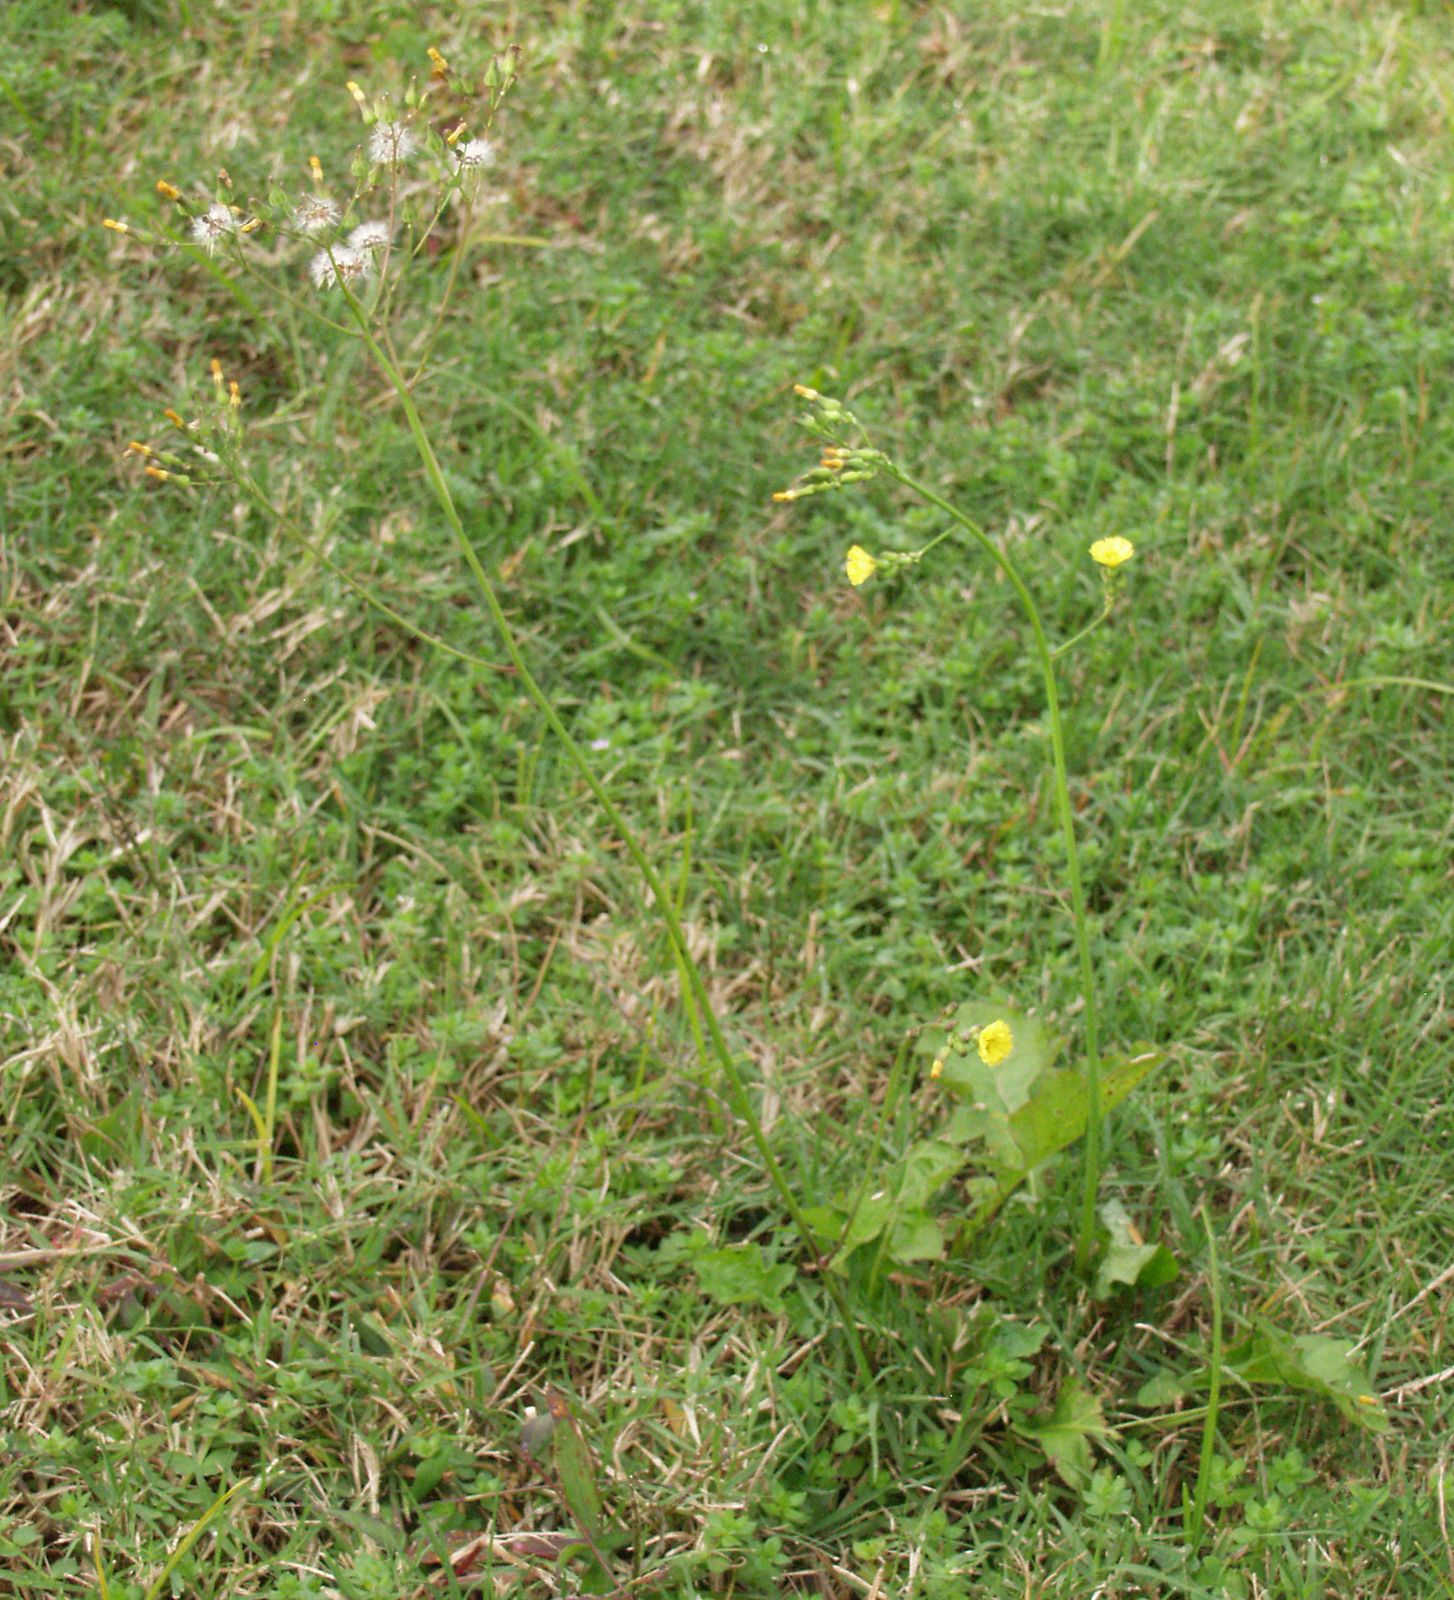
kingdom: Plantae
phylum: Tracheophyta
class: Magnoliopsida
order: Asterales
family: Asteraceae
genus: Youngia
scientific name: Youngia japonica
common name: Oriental false hawksbeard
